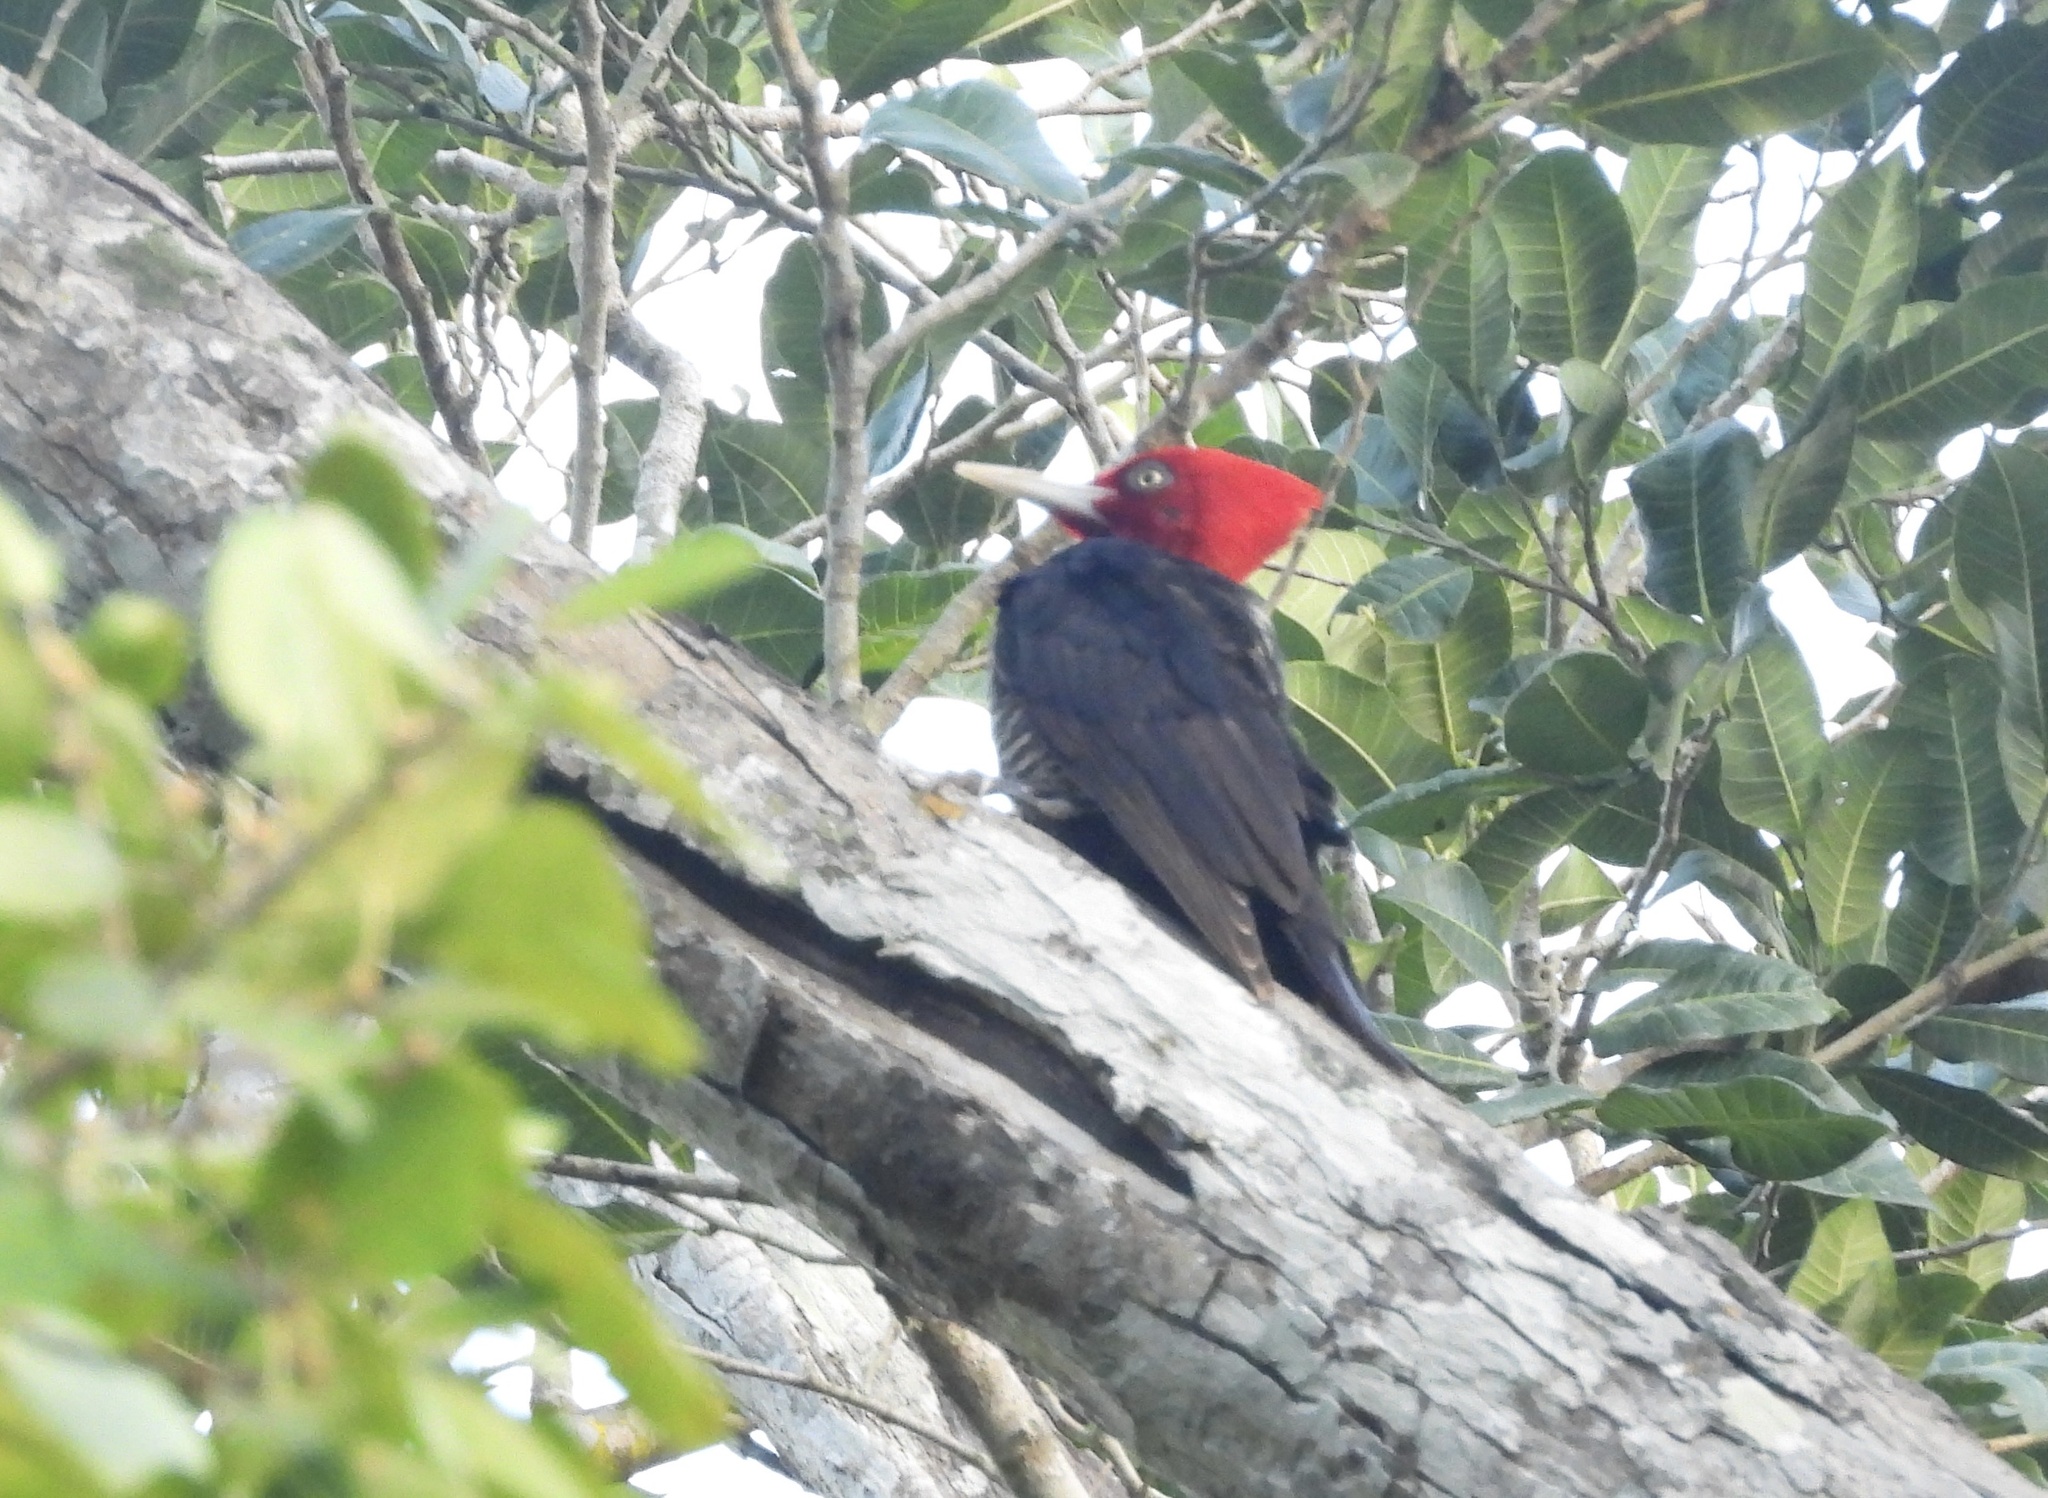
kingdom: Animalia
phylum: Chordata
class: Aves
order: Piciformes
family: Picidae
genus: Campephilus
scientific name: Campephilus guatemalensis
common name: Pale-billed woodpecker
